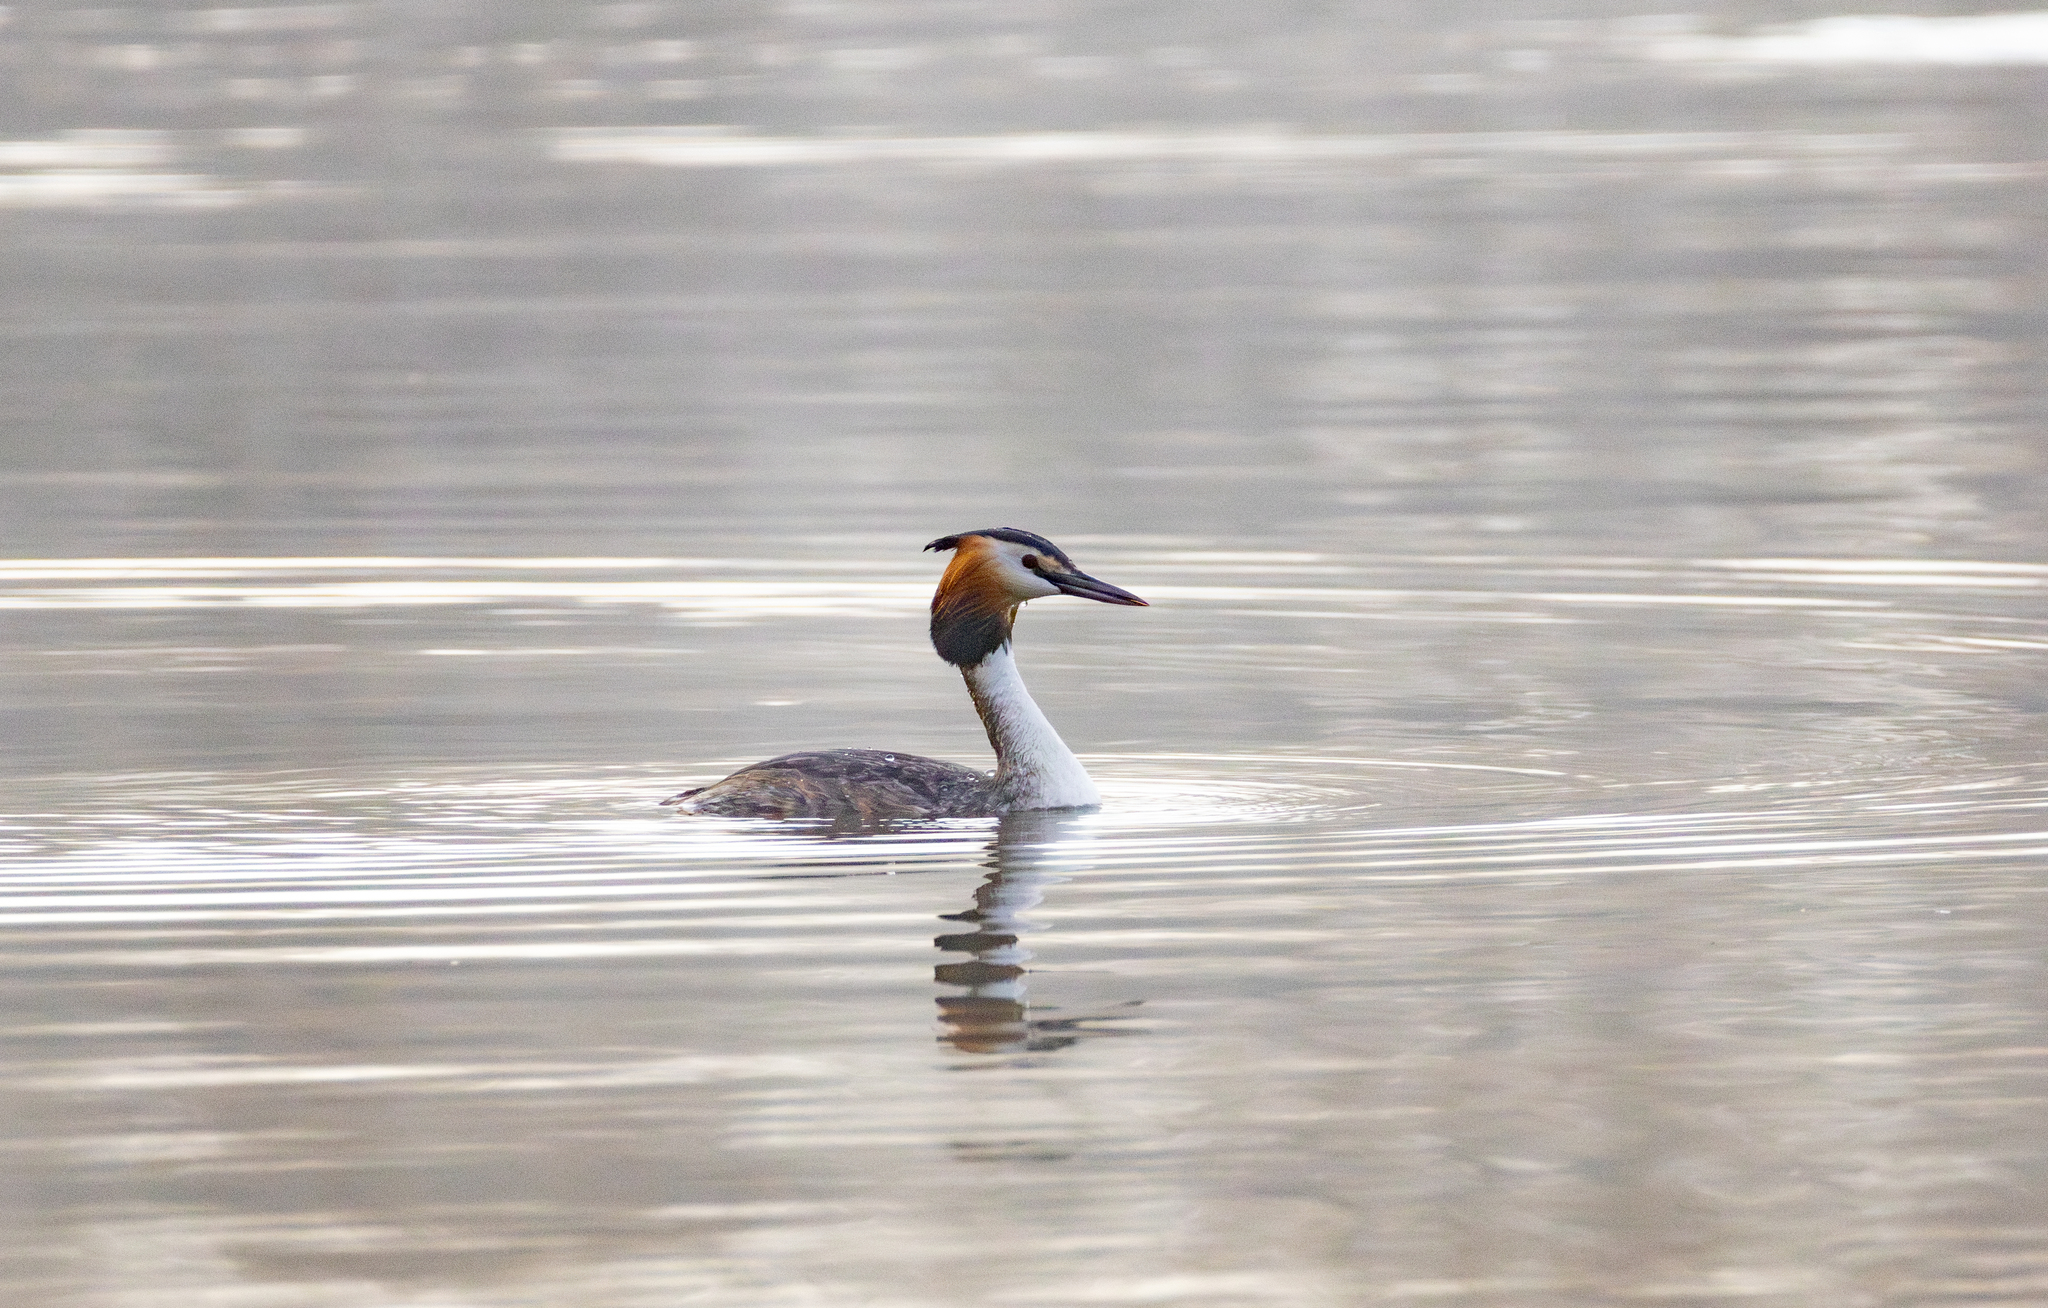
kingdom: Animalia
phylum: Chordata
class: Aves
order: Podicipediformes
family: Podicipedidae
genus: Podiceps
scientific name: Podiceps cristatus
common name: Great crested grebe
